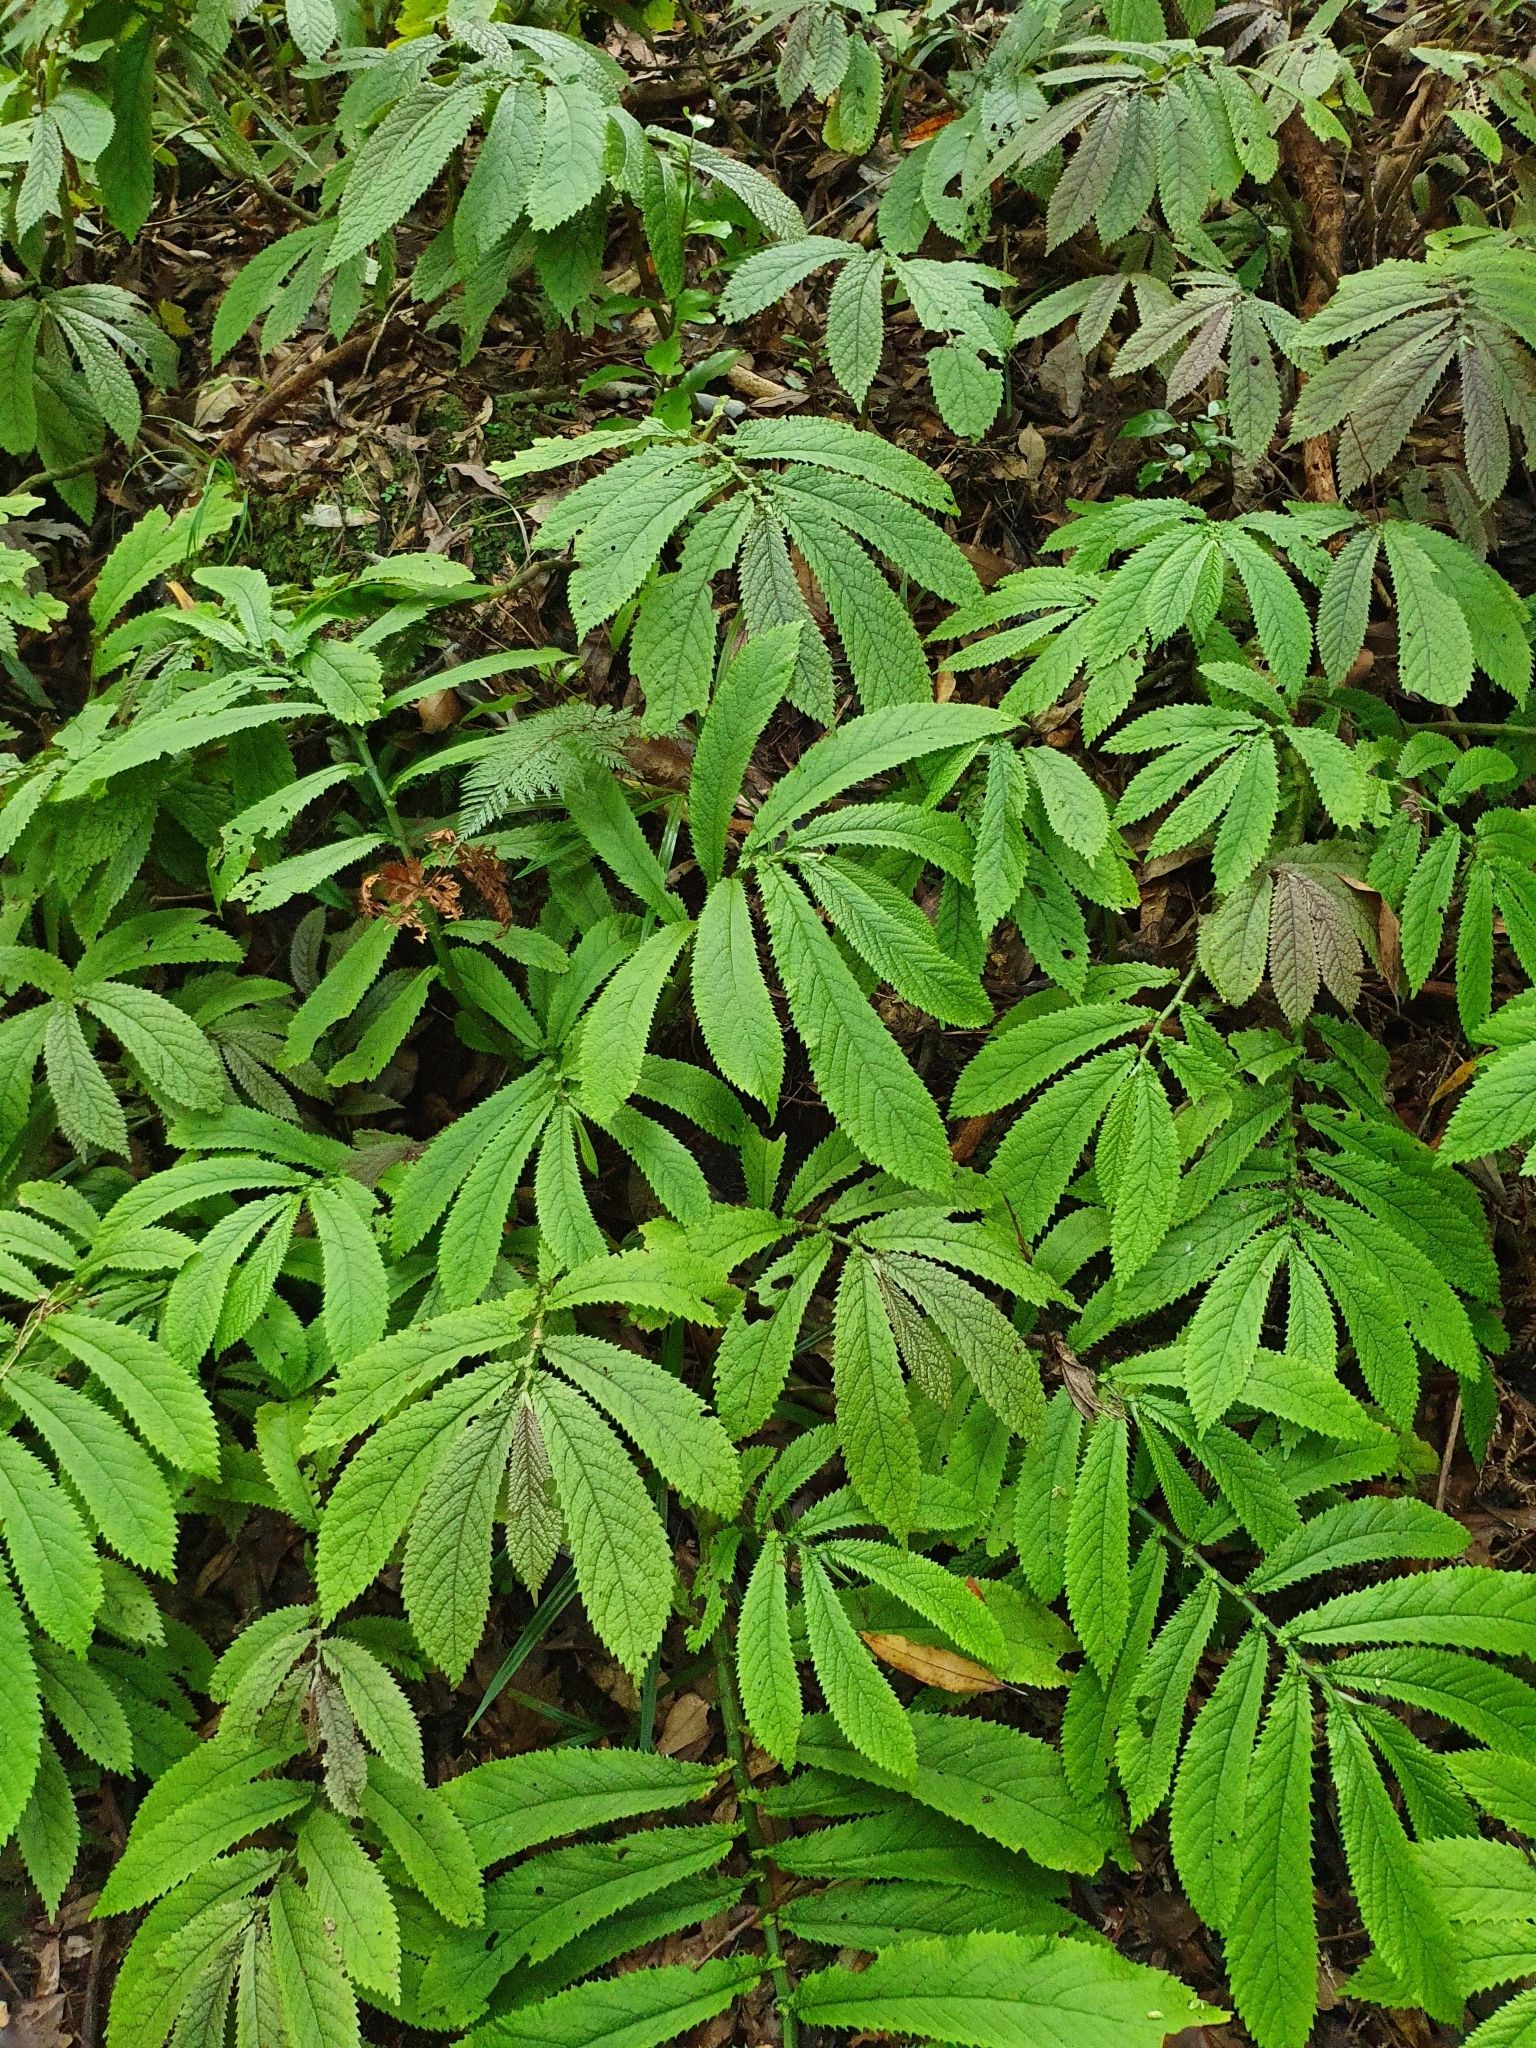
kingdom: Plantae
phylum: Tracheophyta
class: Magnoliopsida
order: Rosales
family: Urticaceae
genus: Elatostema
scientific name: Elatostema rugosum
